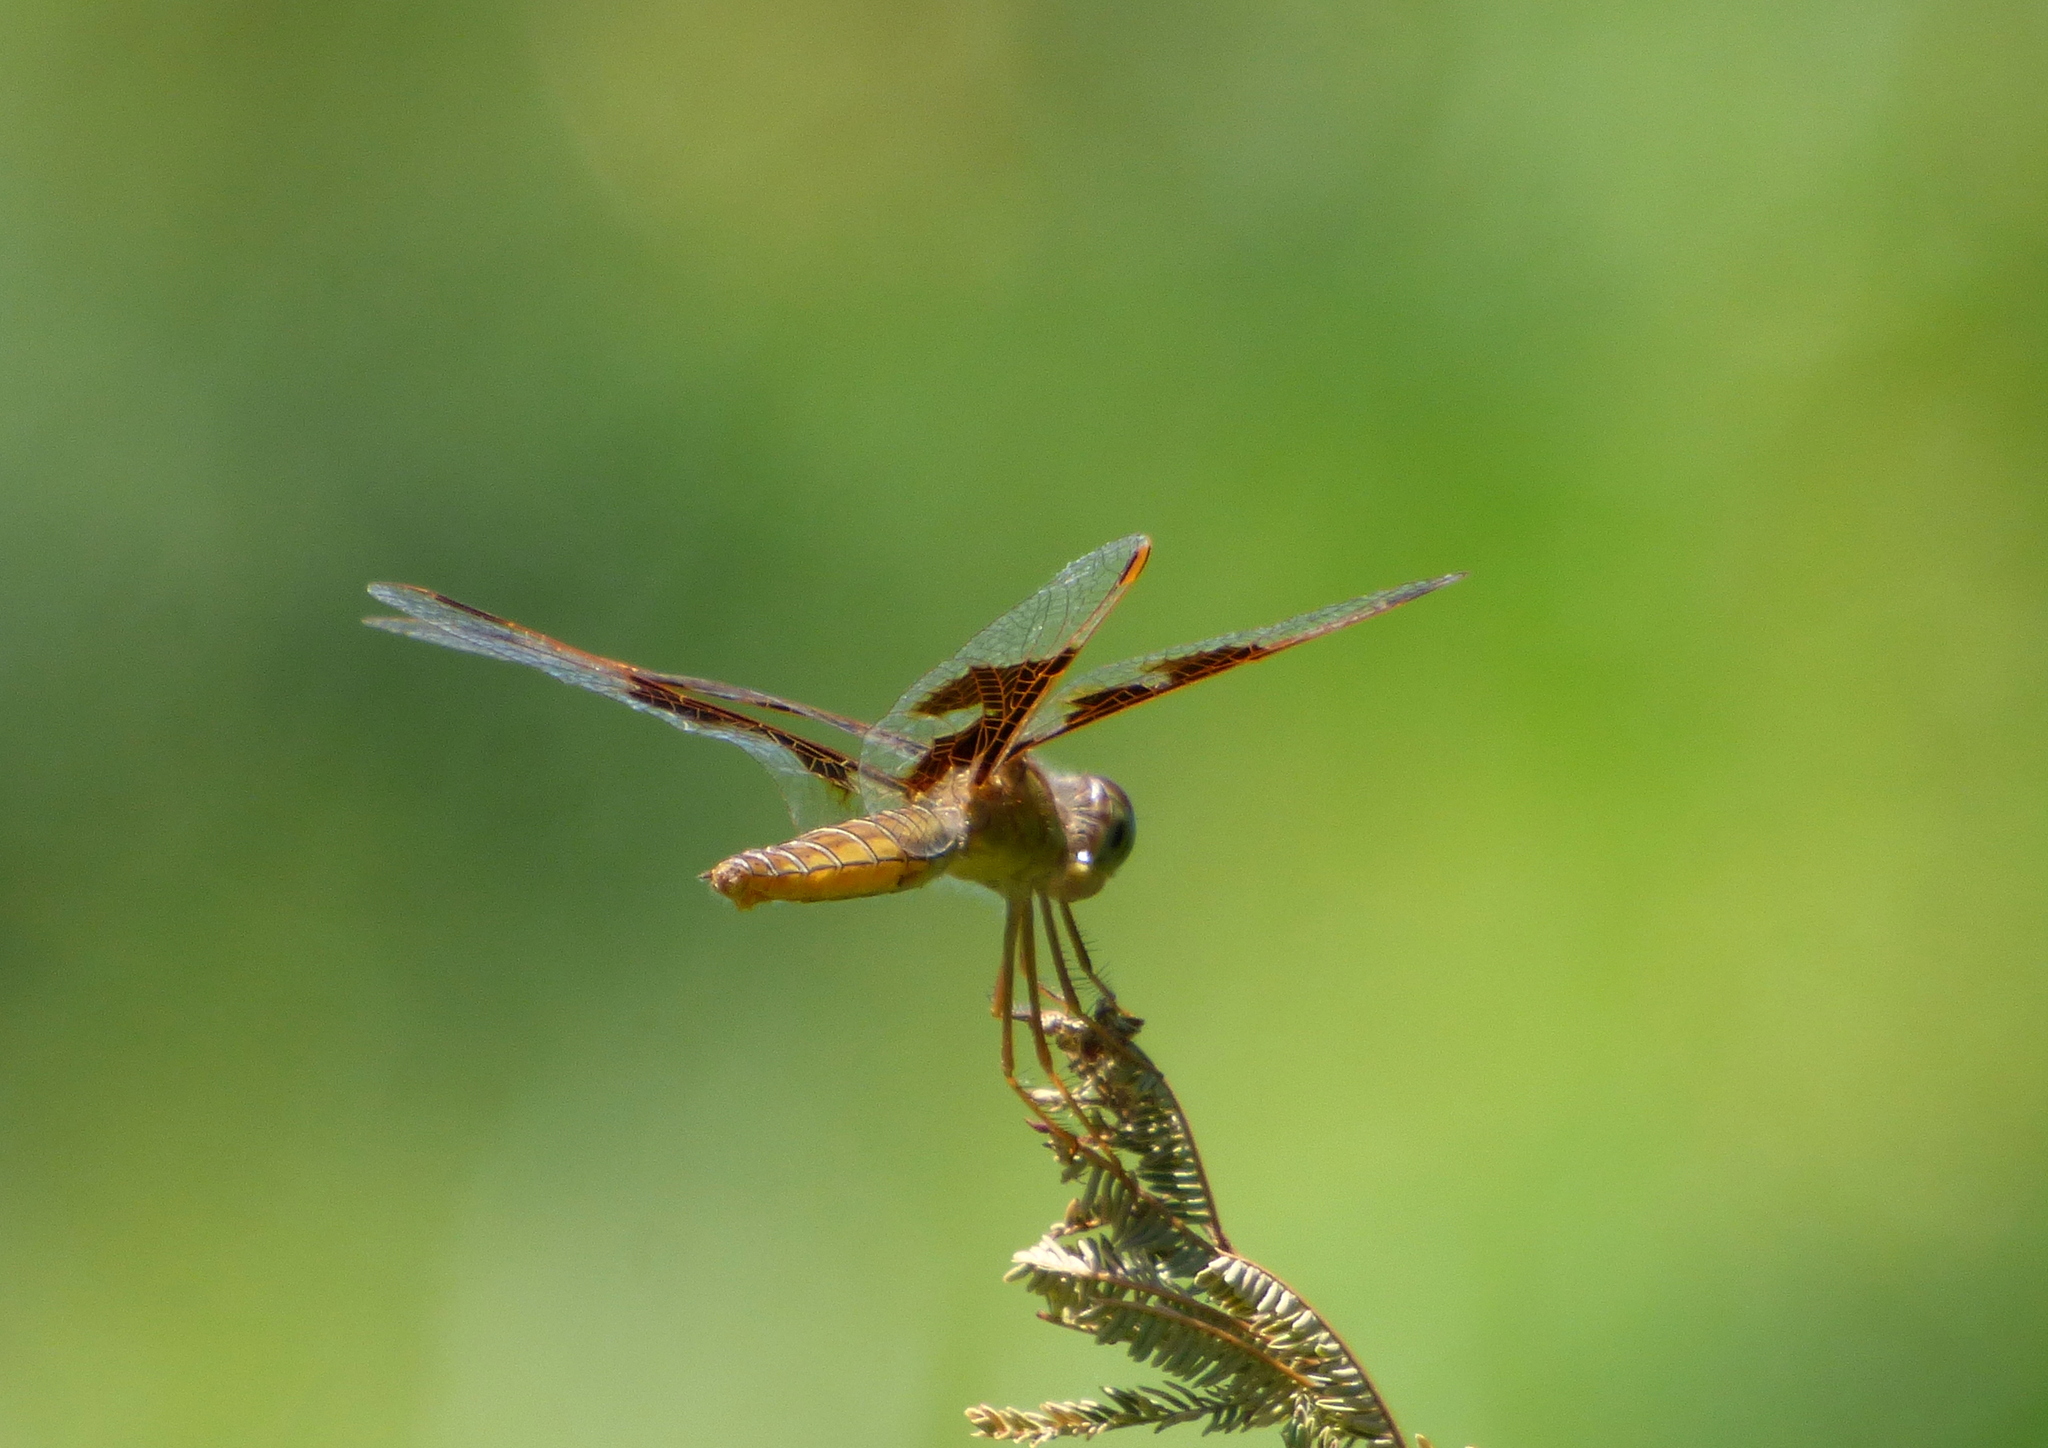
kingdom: Animalia
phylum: Arthropoda
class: Insecta
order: Odonata
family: Libellulidae
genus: Perithemis
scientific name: Perithemis tenera
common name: Eastern amberwing
